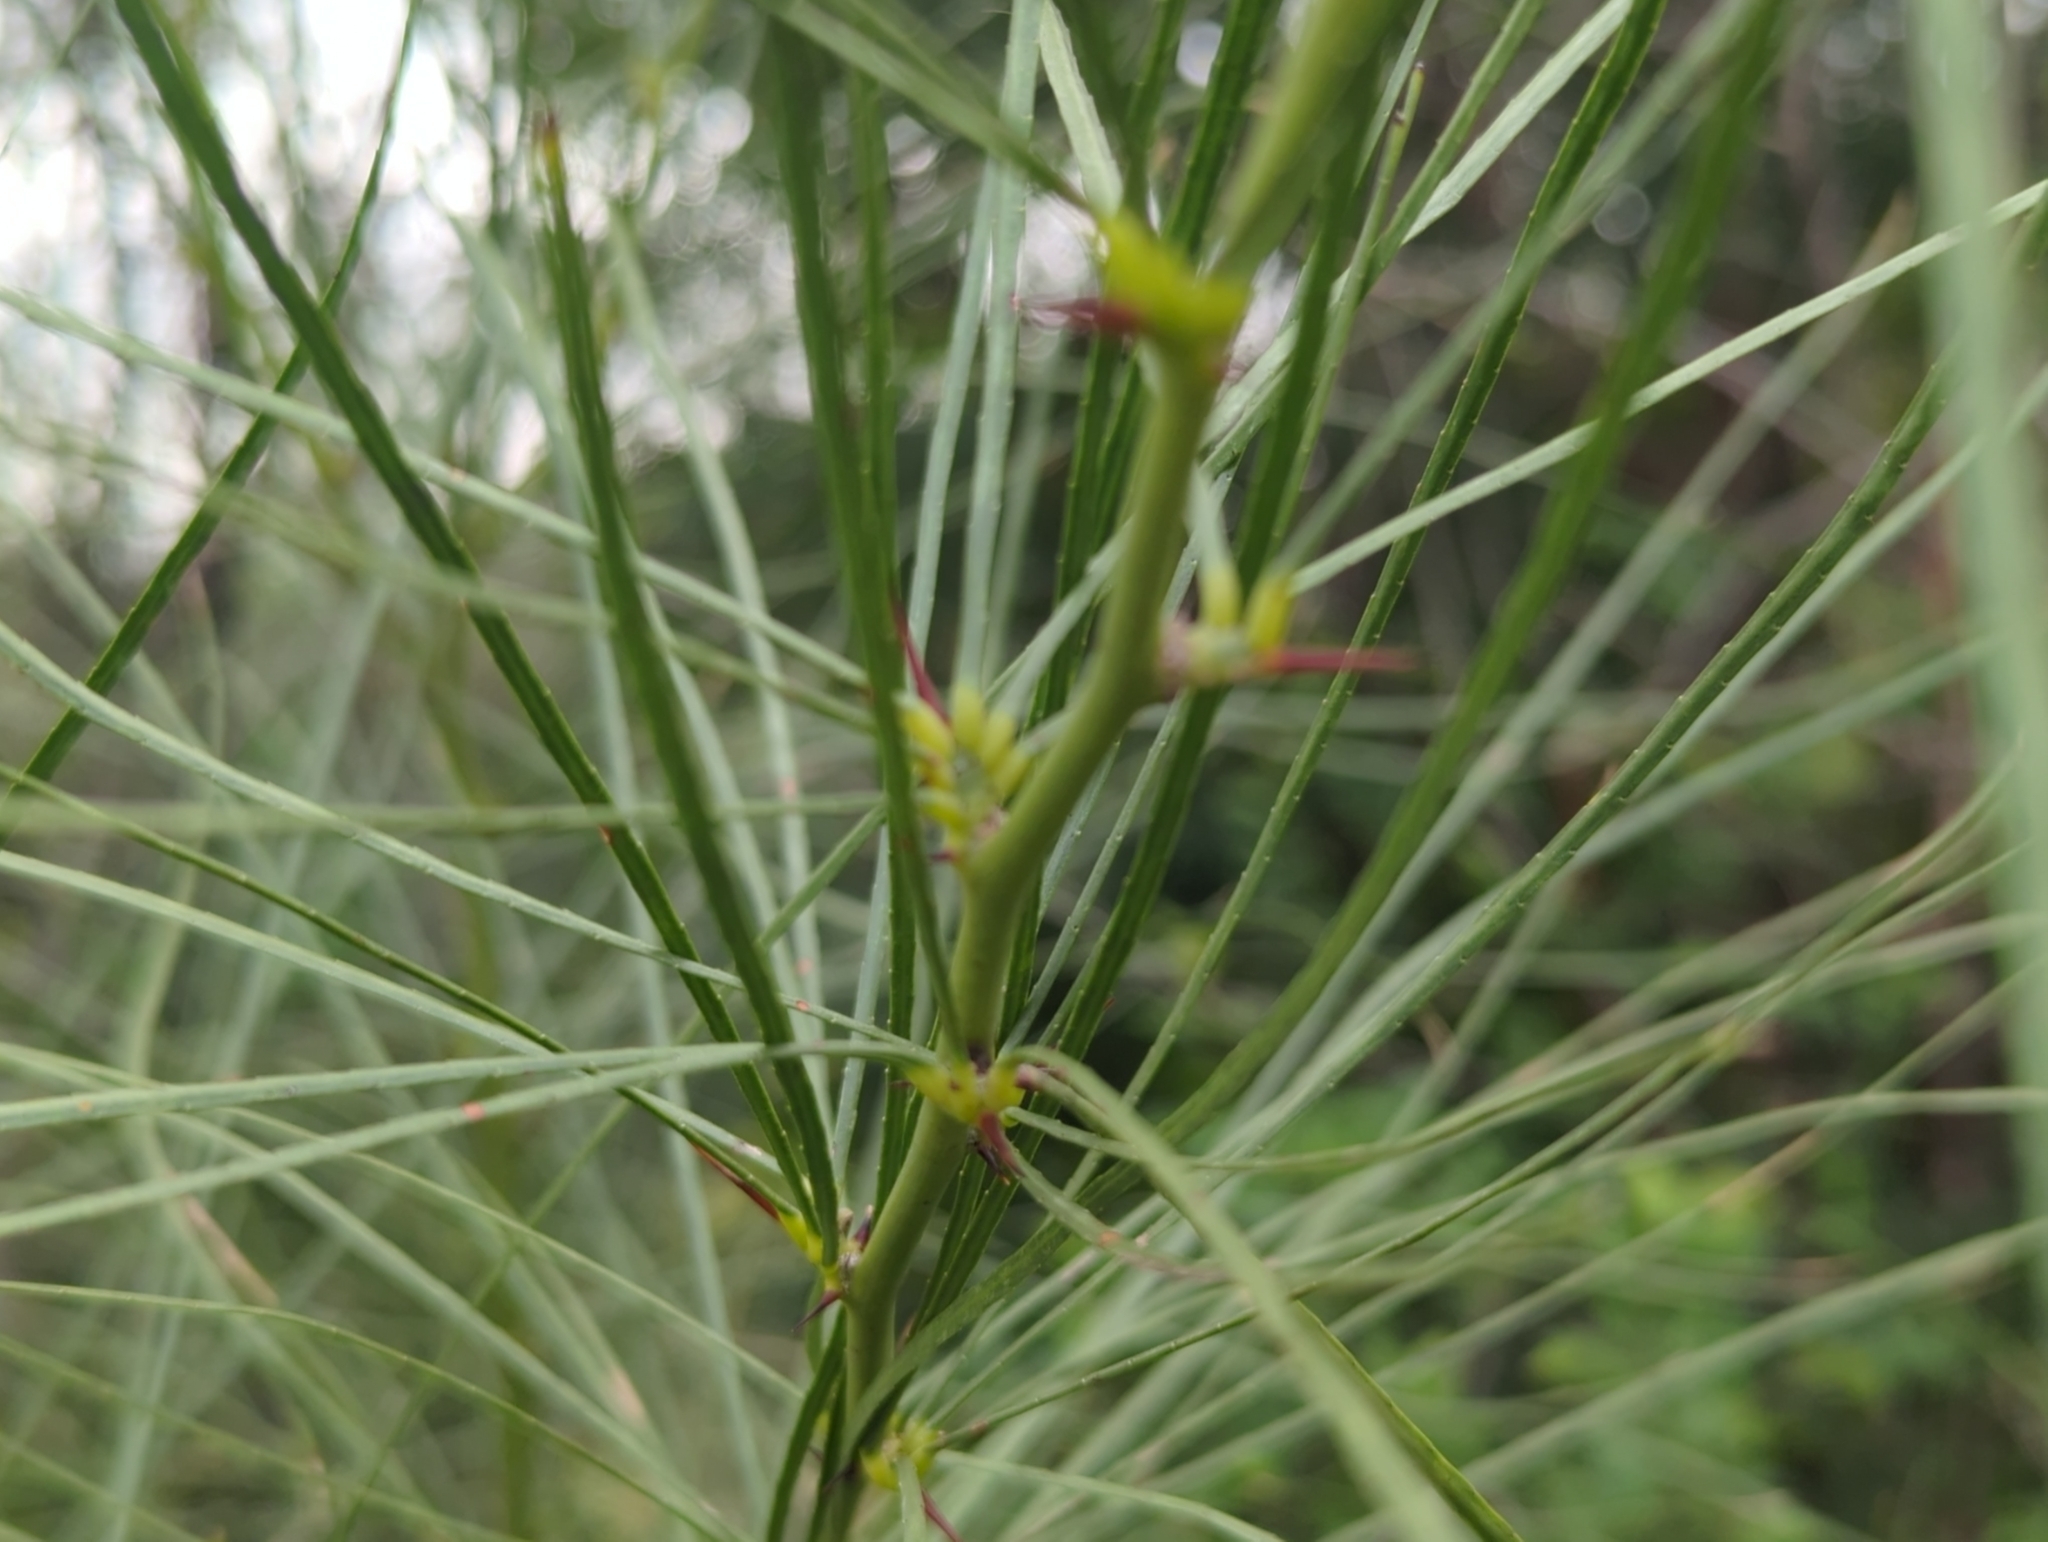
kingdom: Plantae
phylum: Tracheophyta
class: Magnoliopsida
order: Fabales
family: Fabaceae
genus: Parkinsonia
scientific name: Parkinsonia aculeata
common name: Jerusalem thorn
